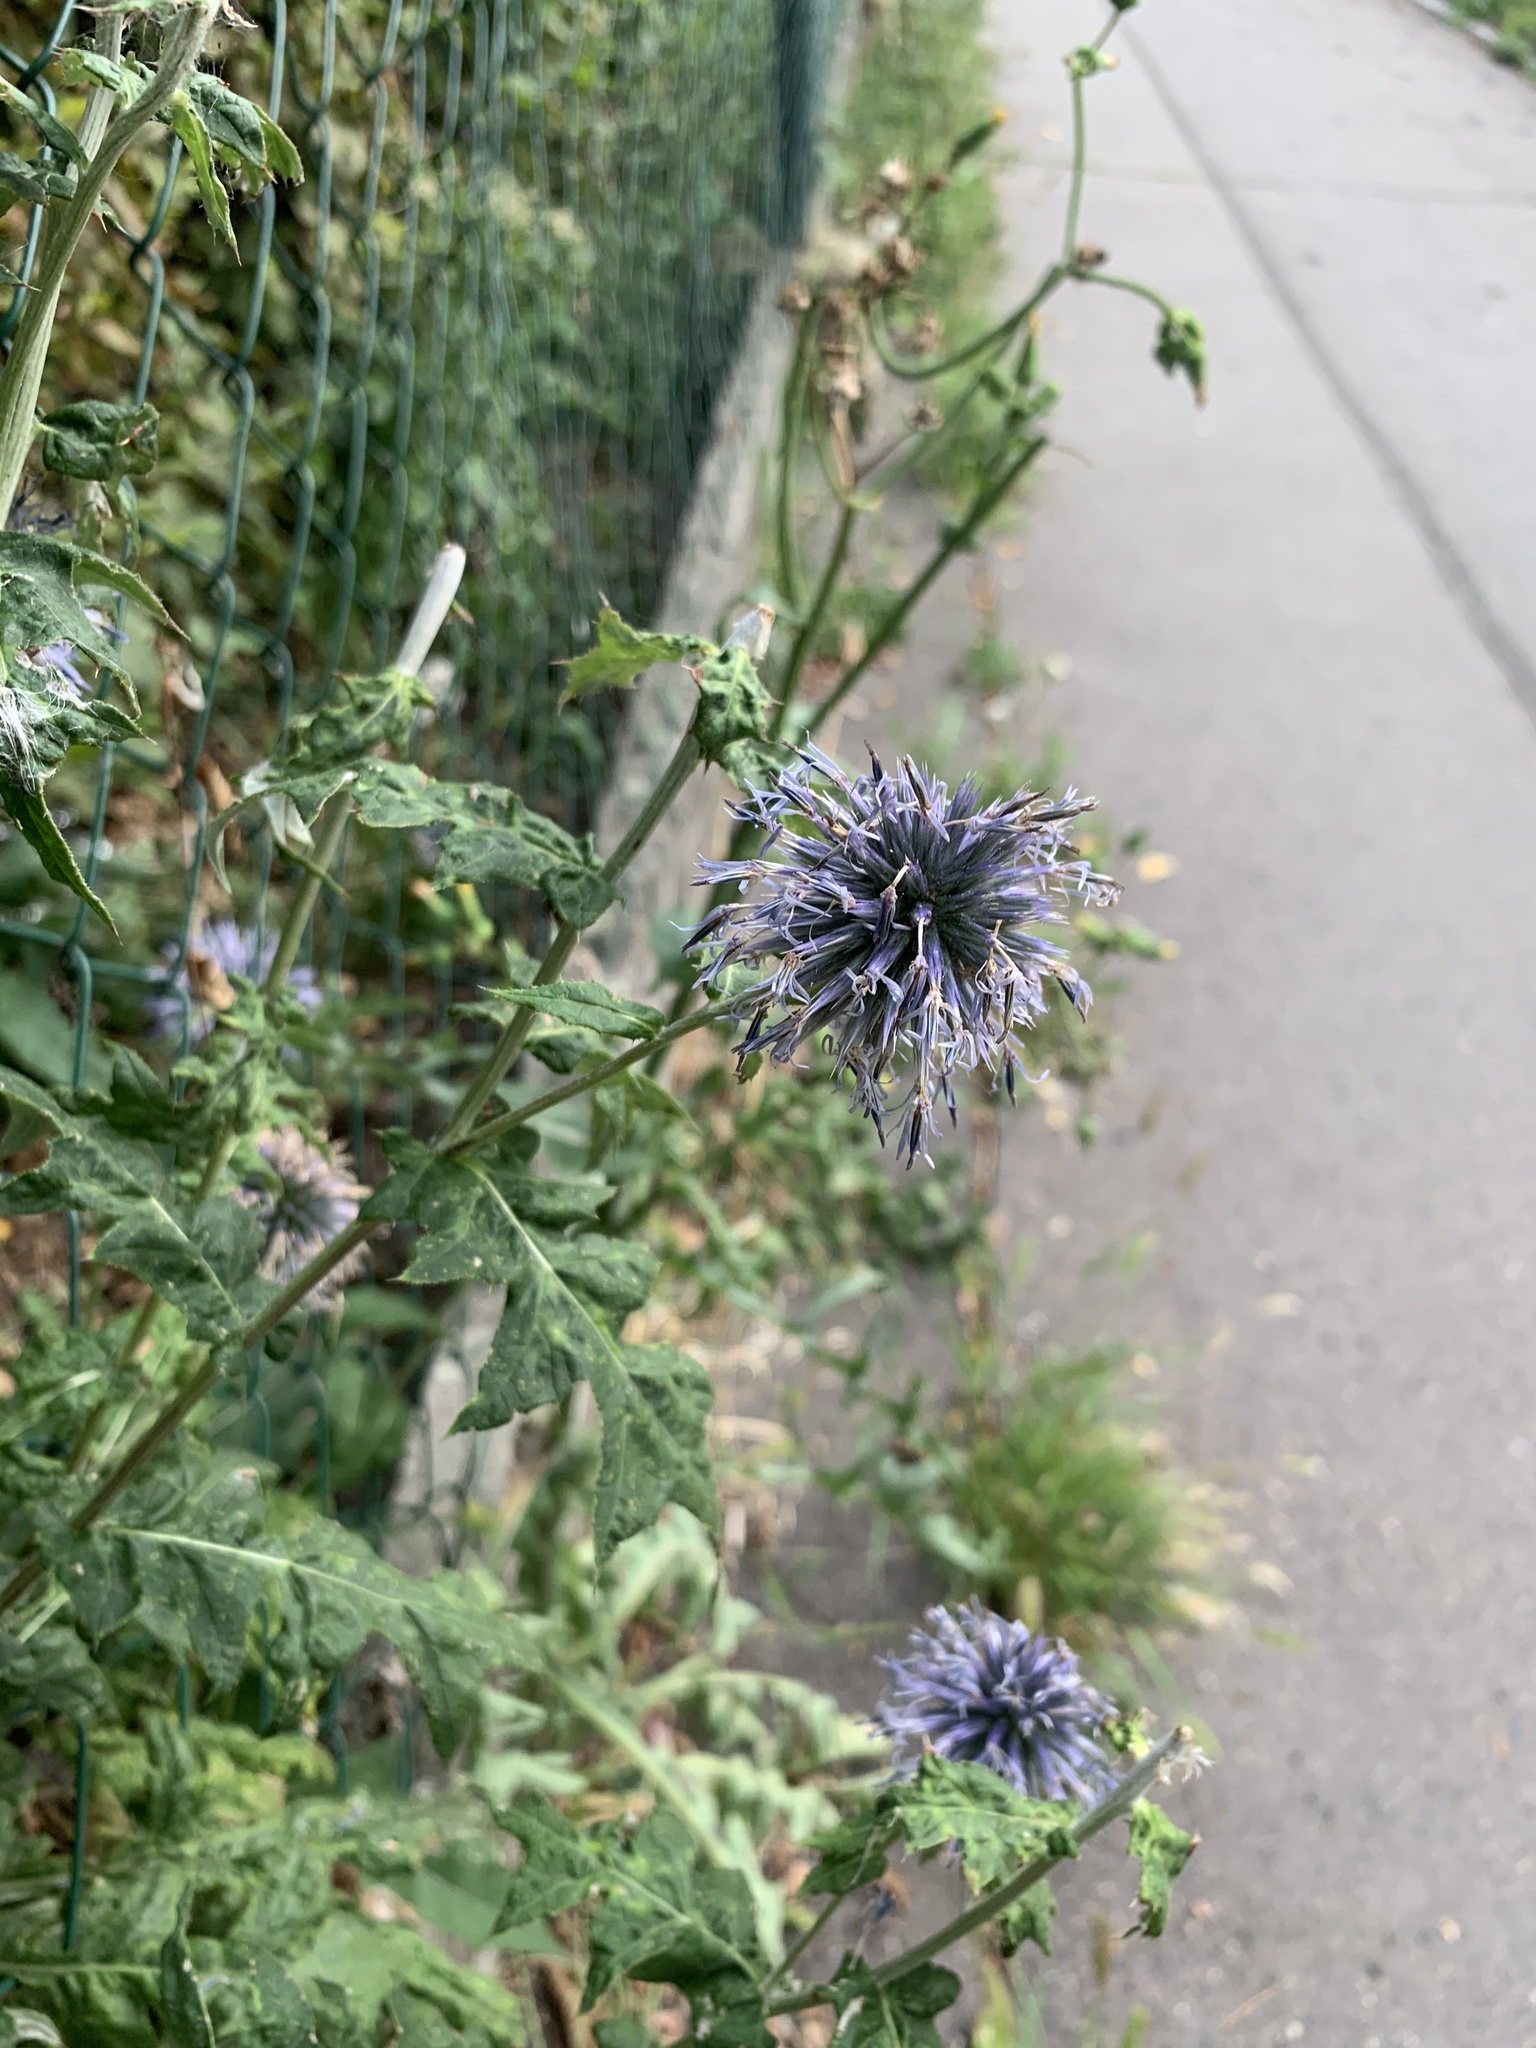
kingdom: Plantae
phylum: Tracheophyta
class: Magnoliopsida
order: Asterales
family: Asteraceae
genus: Echinops
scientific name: Echinops bannaticus
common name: Blue globe-thistle
